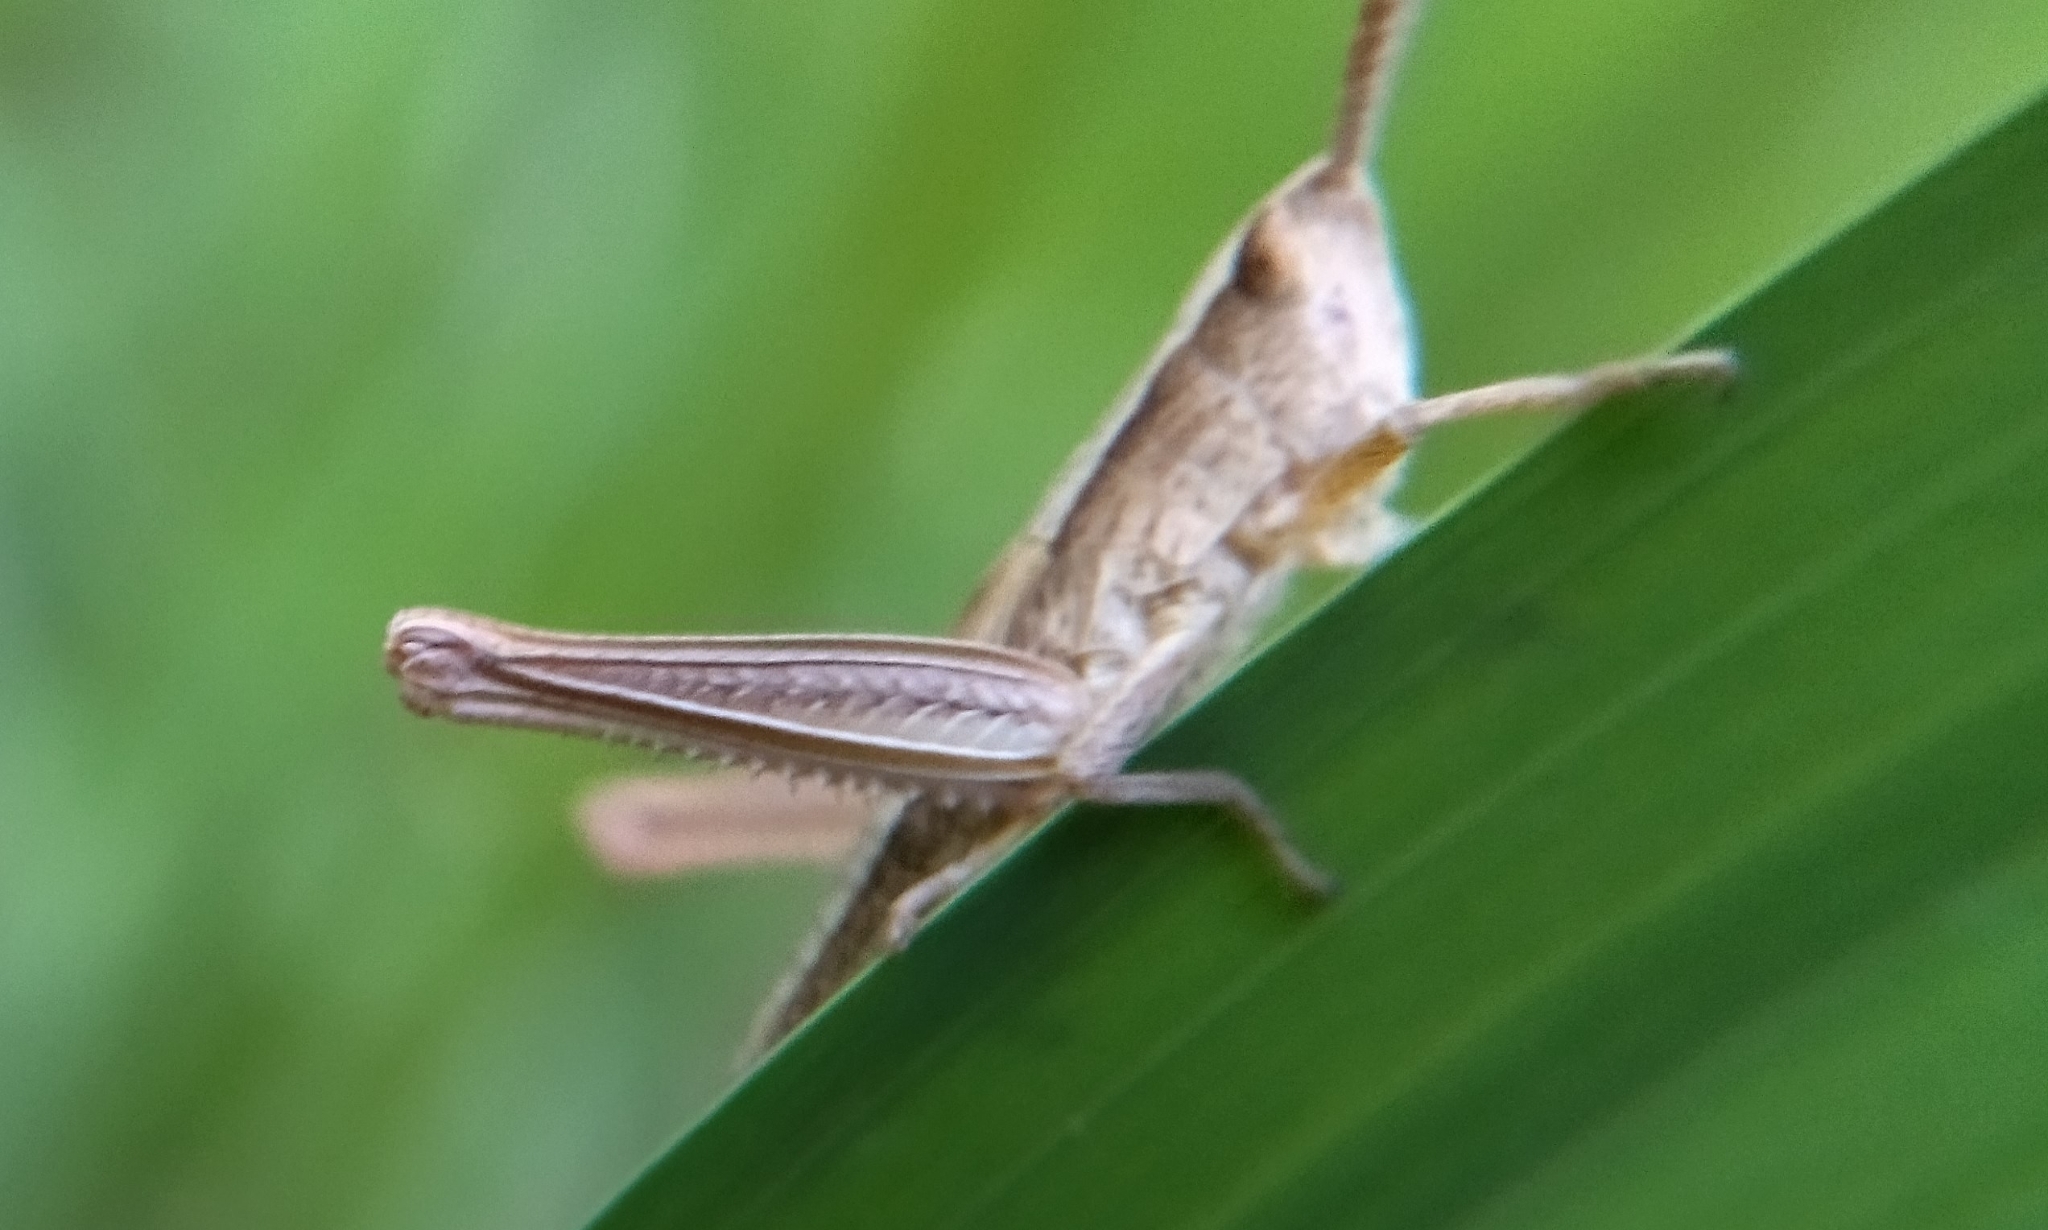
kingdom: Animalia
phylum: Arthropoda
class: Insecta
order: Orthoptera
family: Acrididae
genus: Chrysochraon
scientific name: Chrysochraon dispar
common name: Large gold grasshopper
